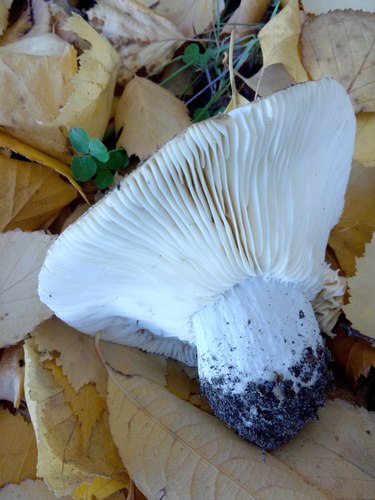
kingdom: Fungi
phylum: Basidiomycota
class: Agaricomycetes
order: Russulales
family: Russulaceae
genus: Russula
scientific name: Russula brevipes
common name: Short-stemmed russula
